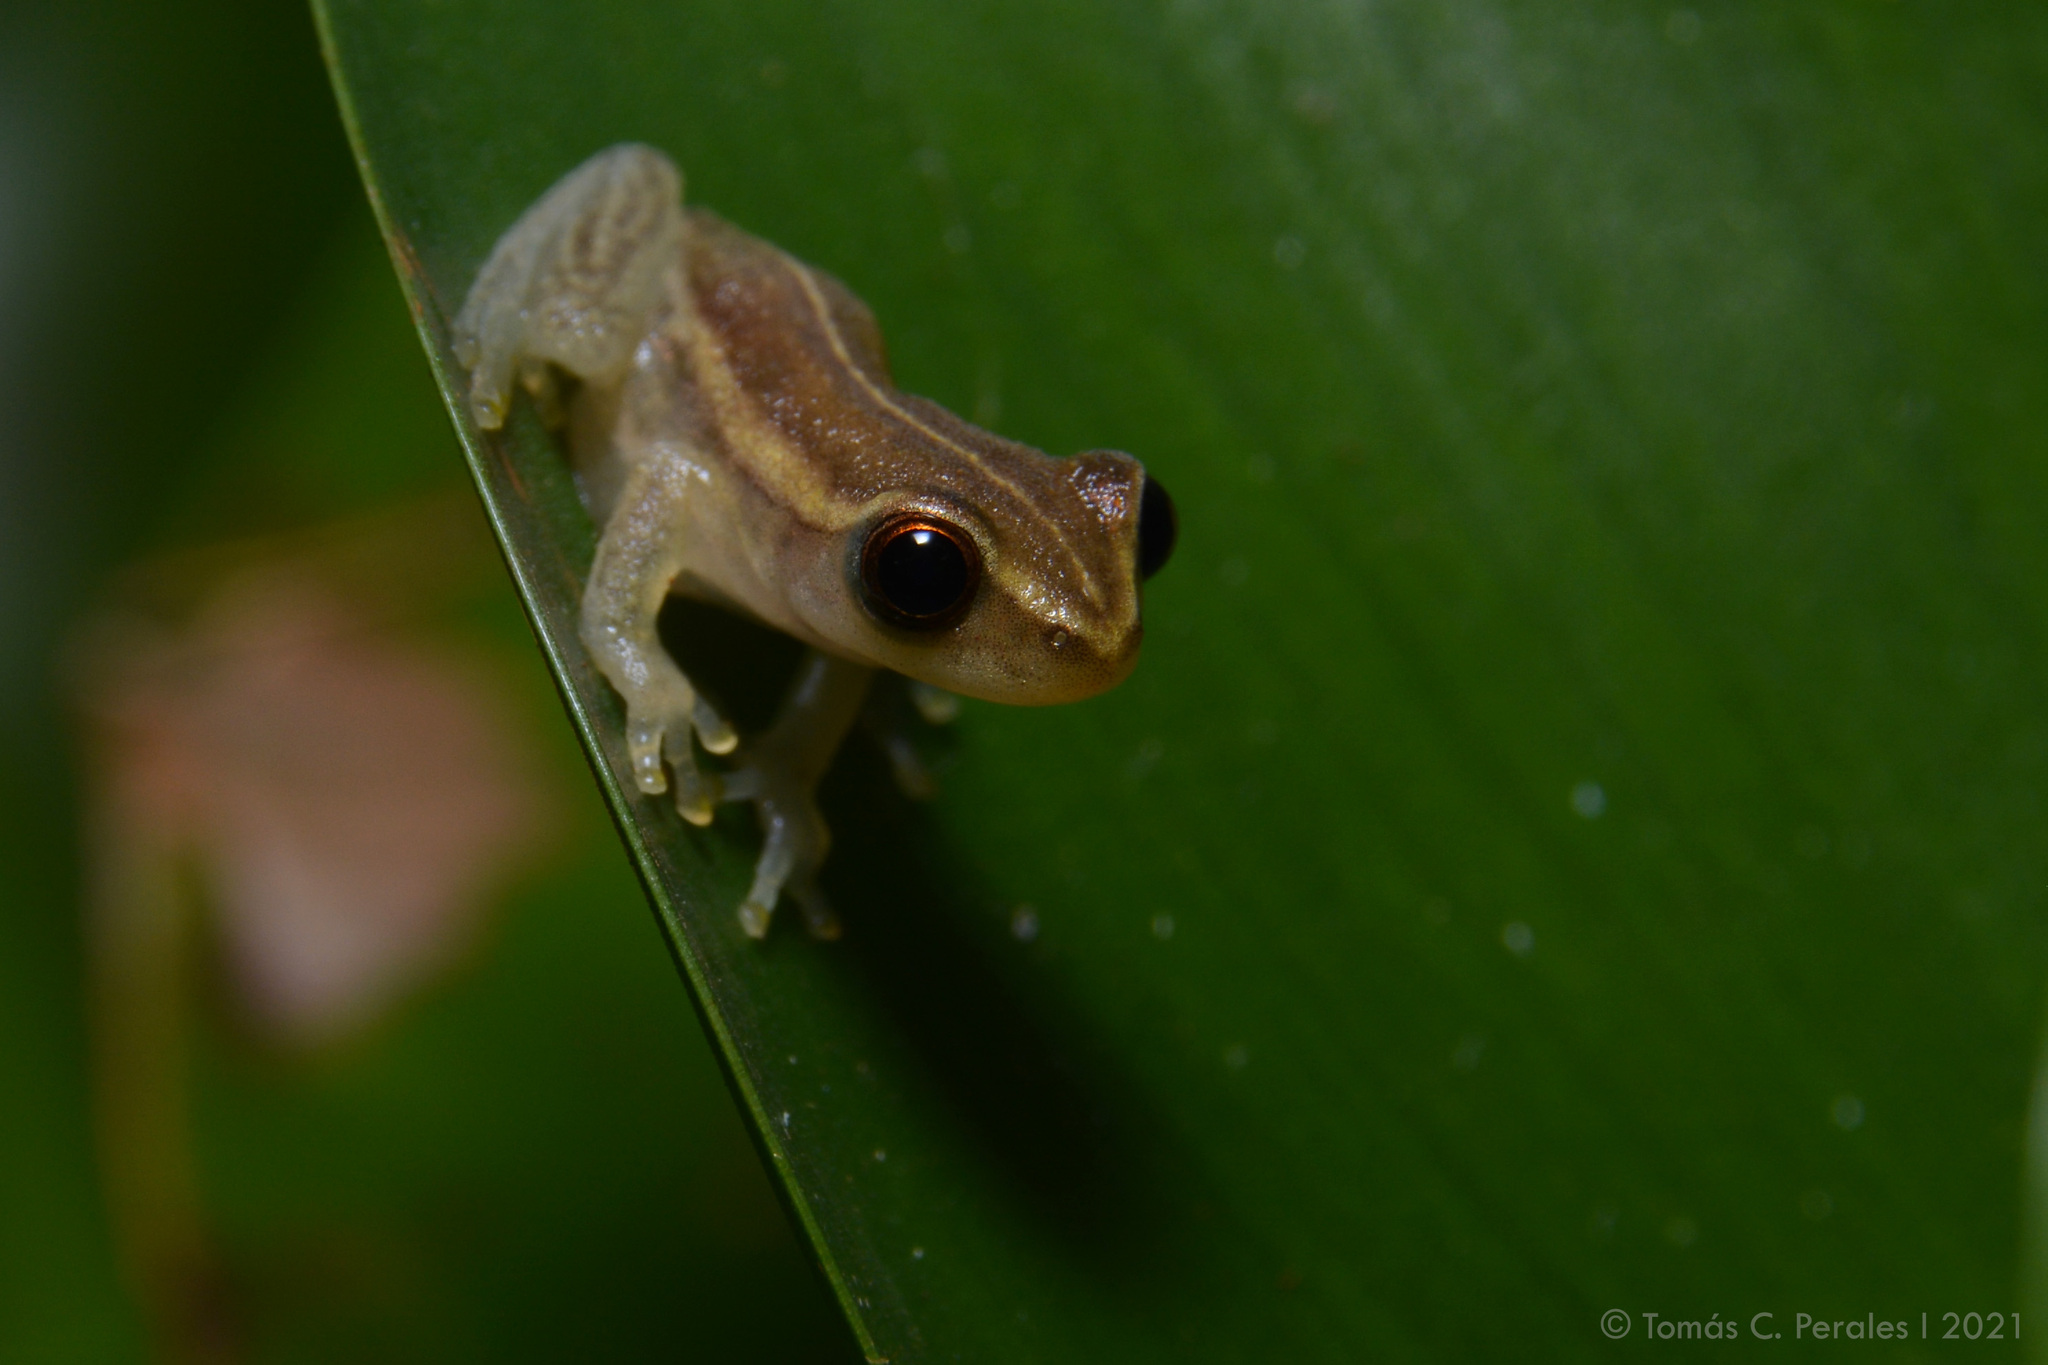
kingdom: Animalia
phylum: Chordata
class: Amphibia
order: Anura
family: Hylidae
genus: Dendropsophus
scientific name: Dendropsophus
